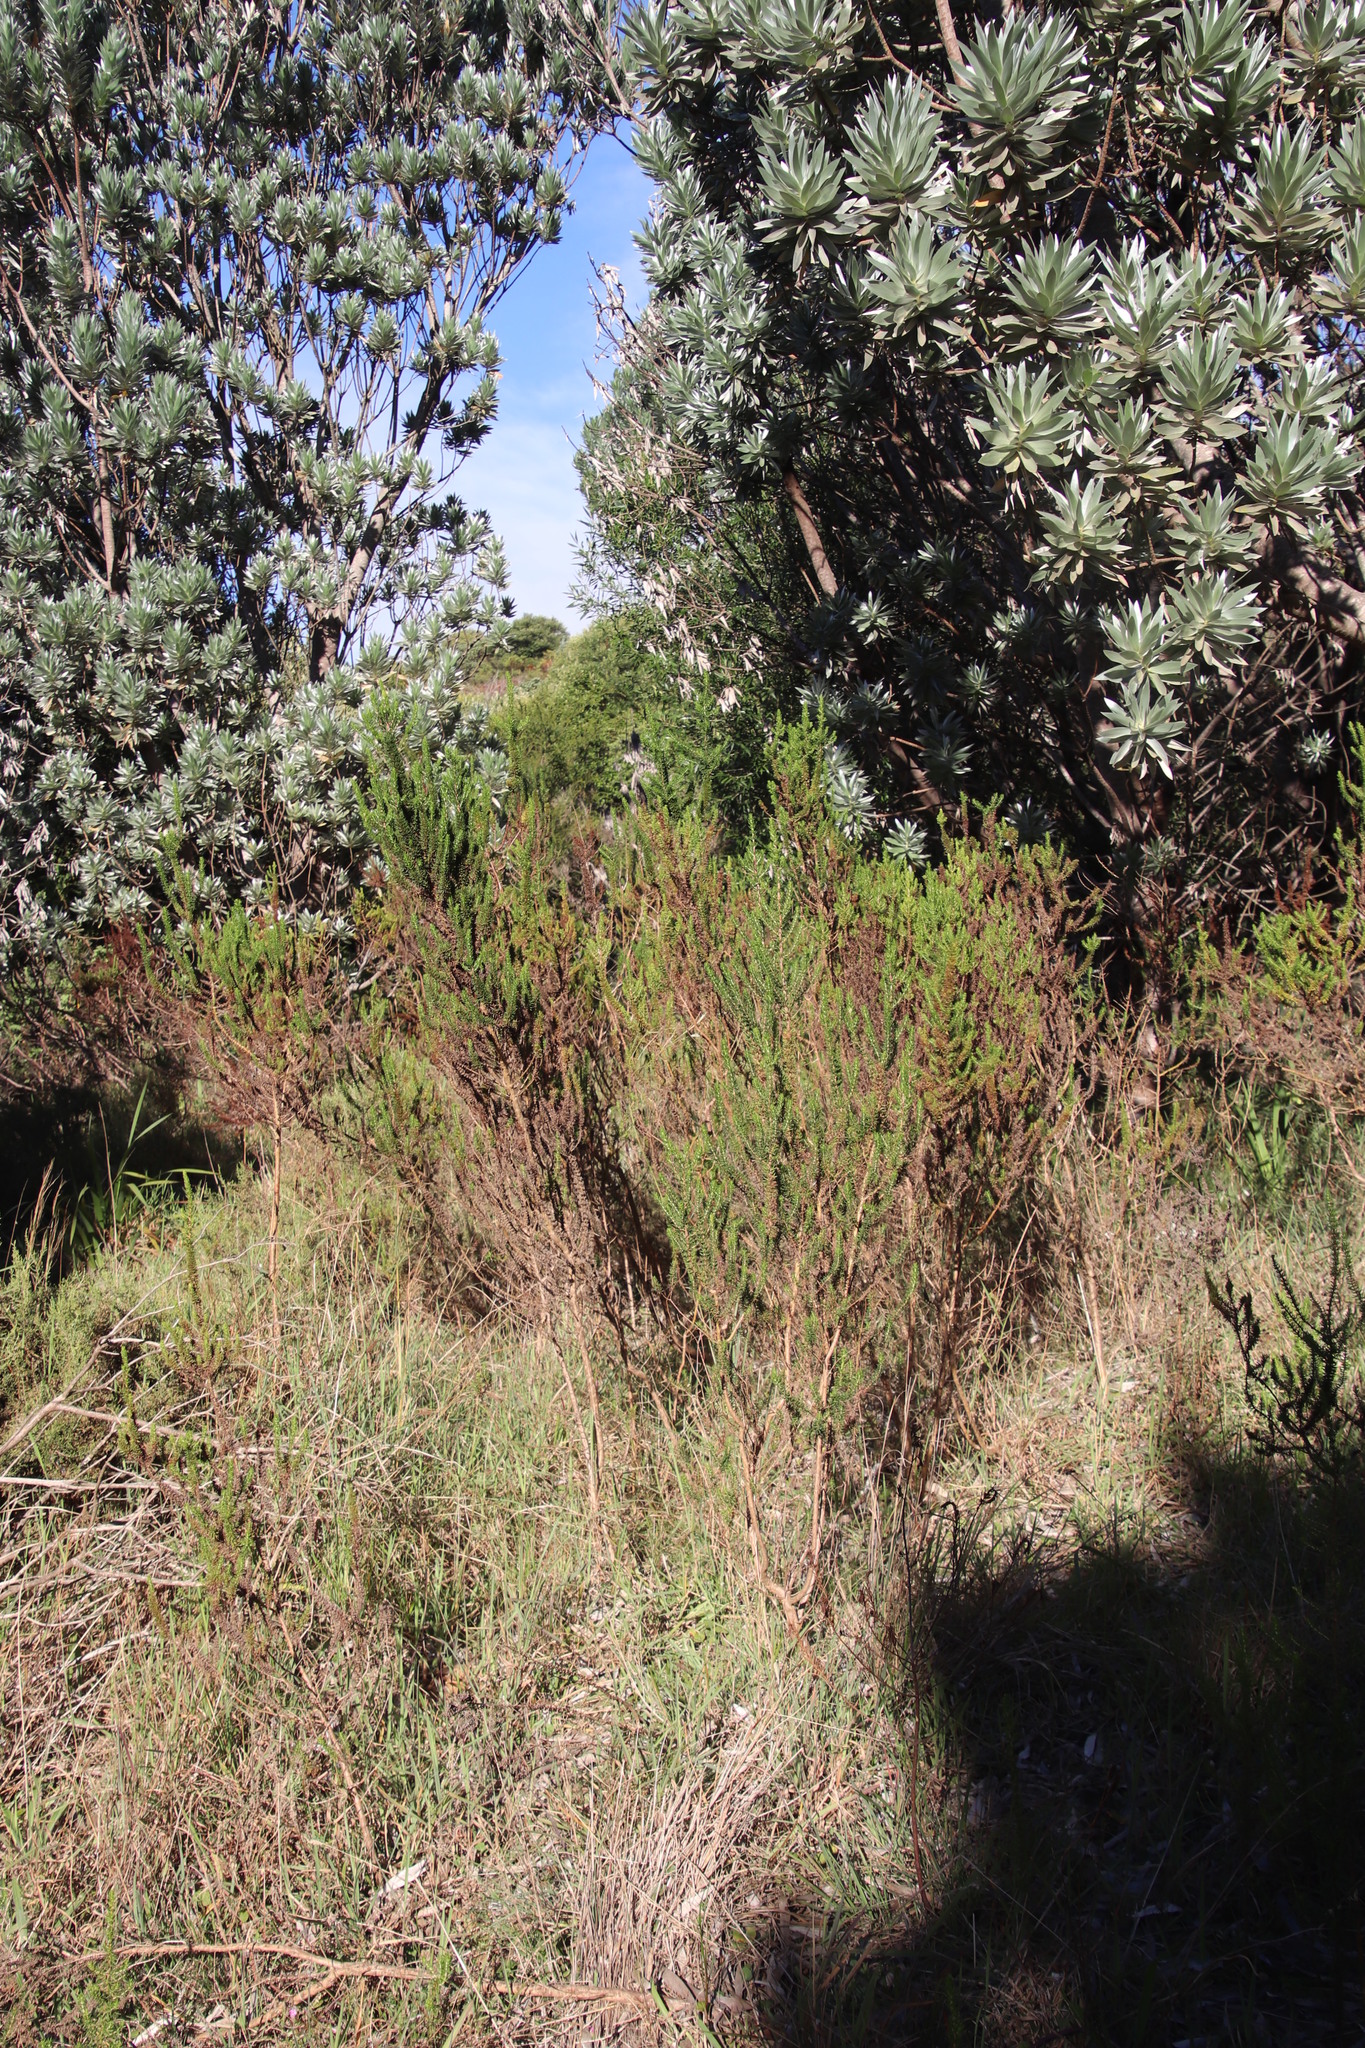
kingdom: Plantae
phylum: Tracheophyta
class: Magnoliopsida
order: Gentianales
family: Rubiaceae
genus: Anthospermum
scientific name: Anthospermum aethiopicum
